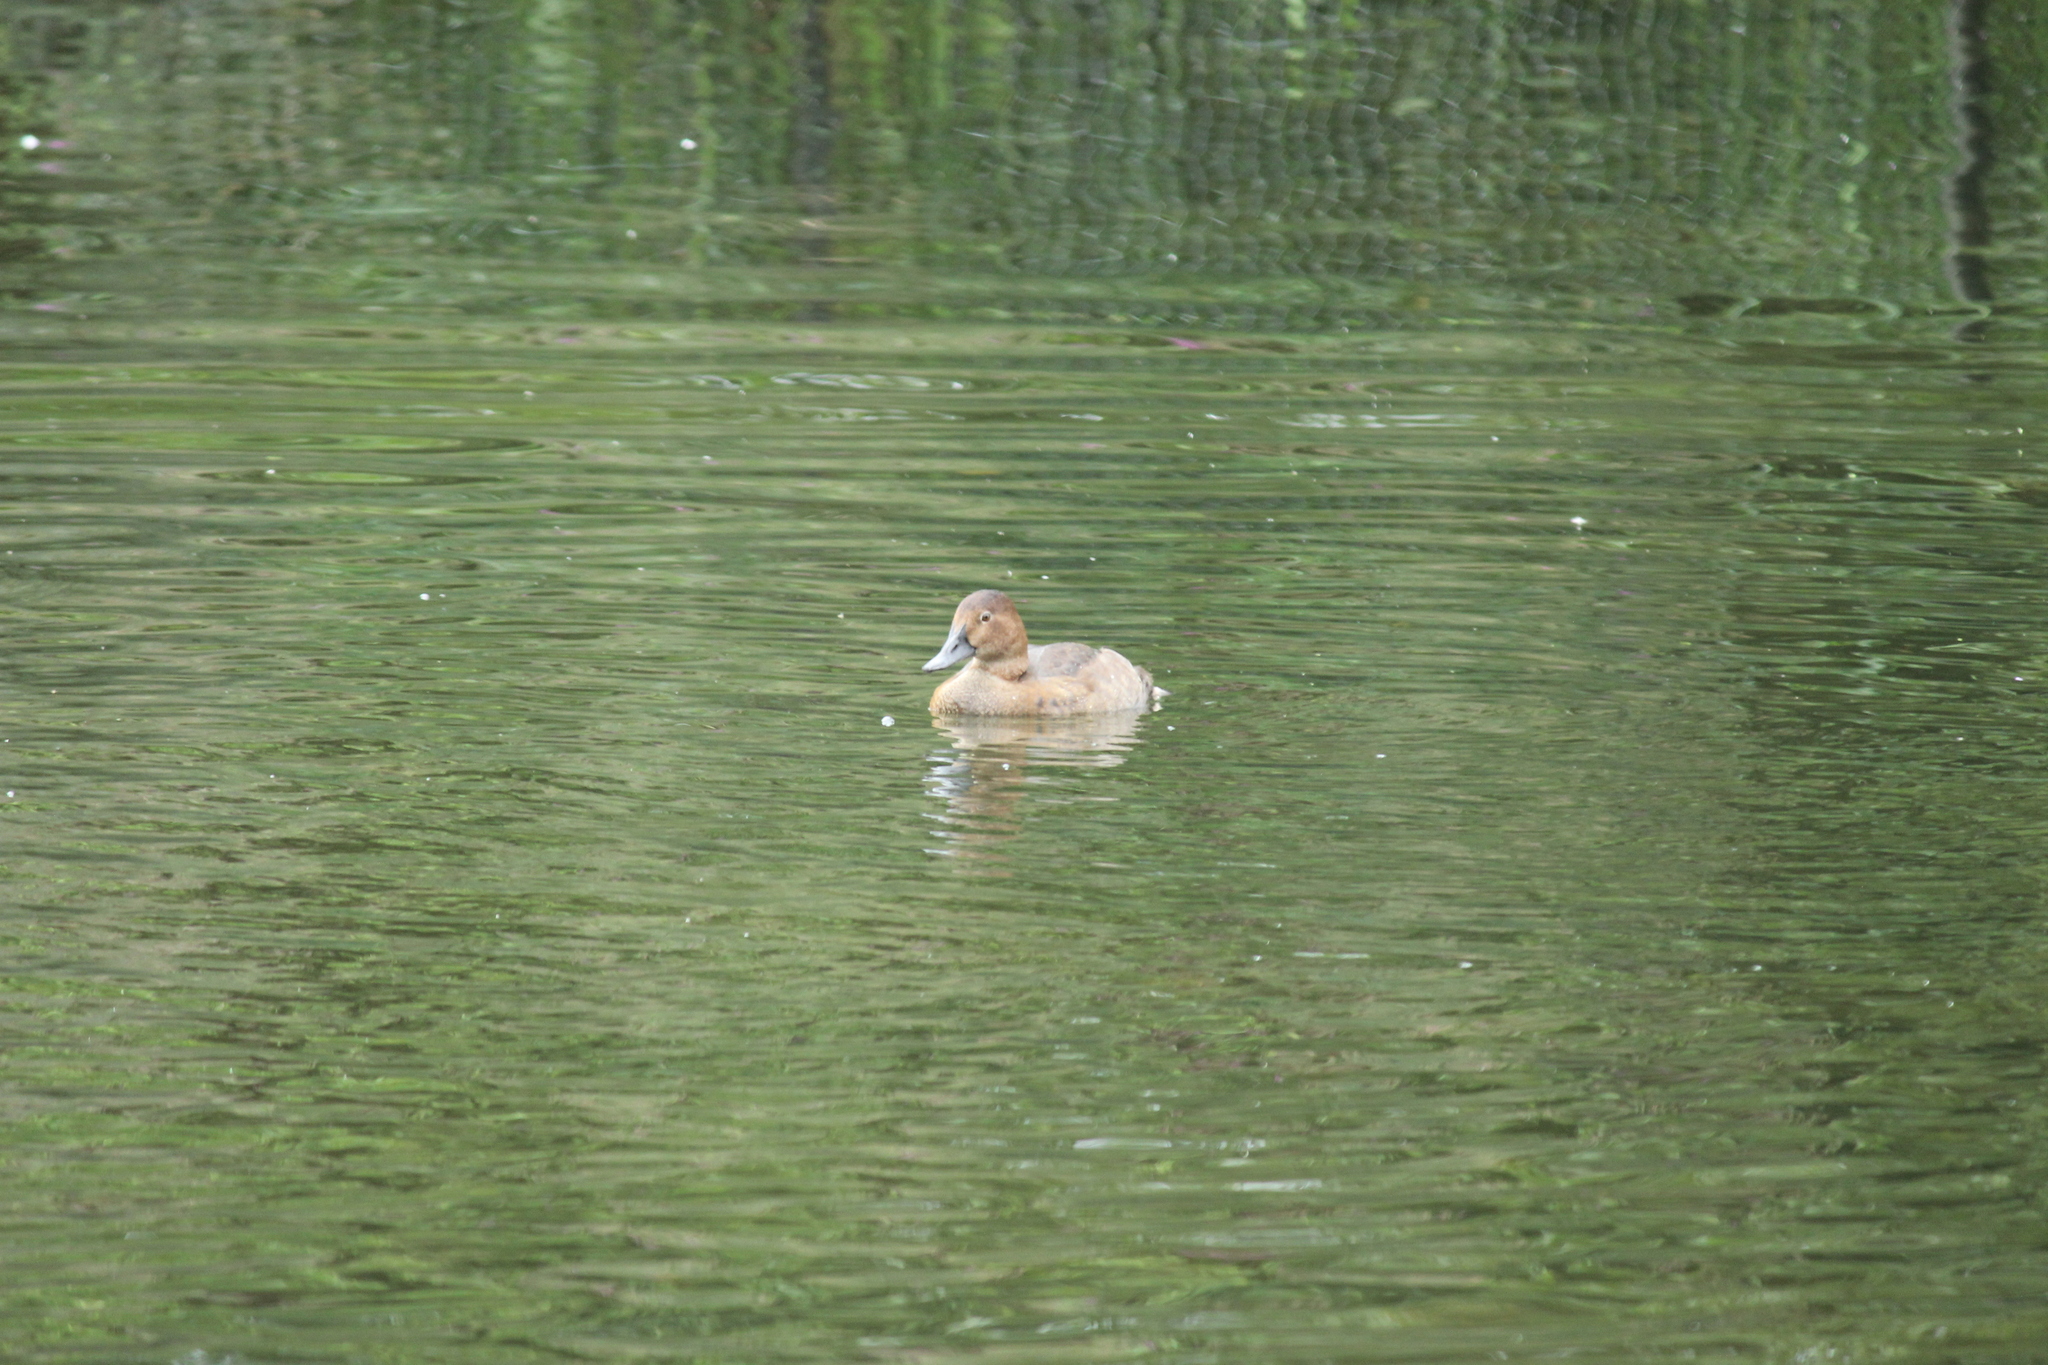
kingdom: Animalia
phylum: Chordata
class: Aves
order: Anseriformes
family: Anatidae
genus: Aythya
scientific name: Aythya ferina
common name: Common pochard
